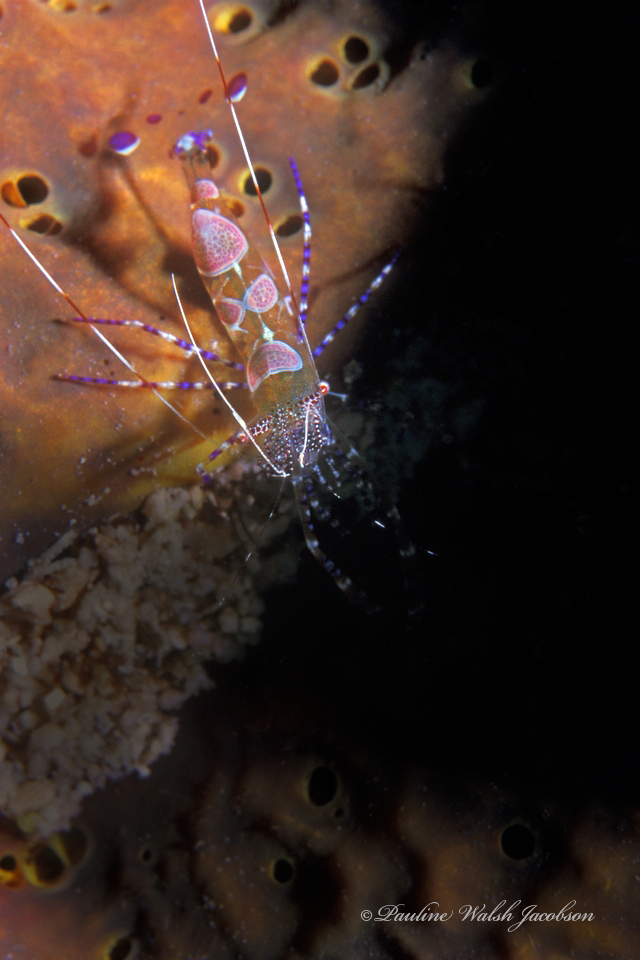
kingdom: Animalia
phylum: Arthropoda
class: Malacostraca
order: Decapoda
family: Palaemonidae
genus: Periclimenes
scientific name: Periclimenes yucatanicus
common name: Spotted cleaning shrimp
